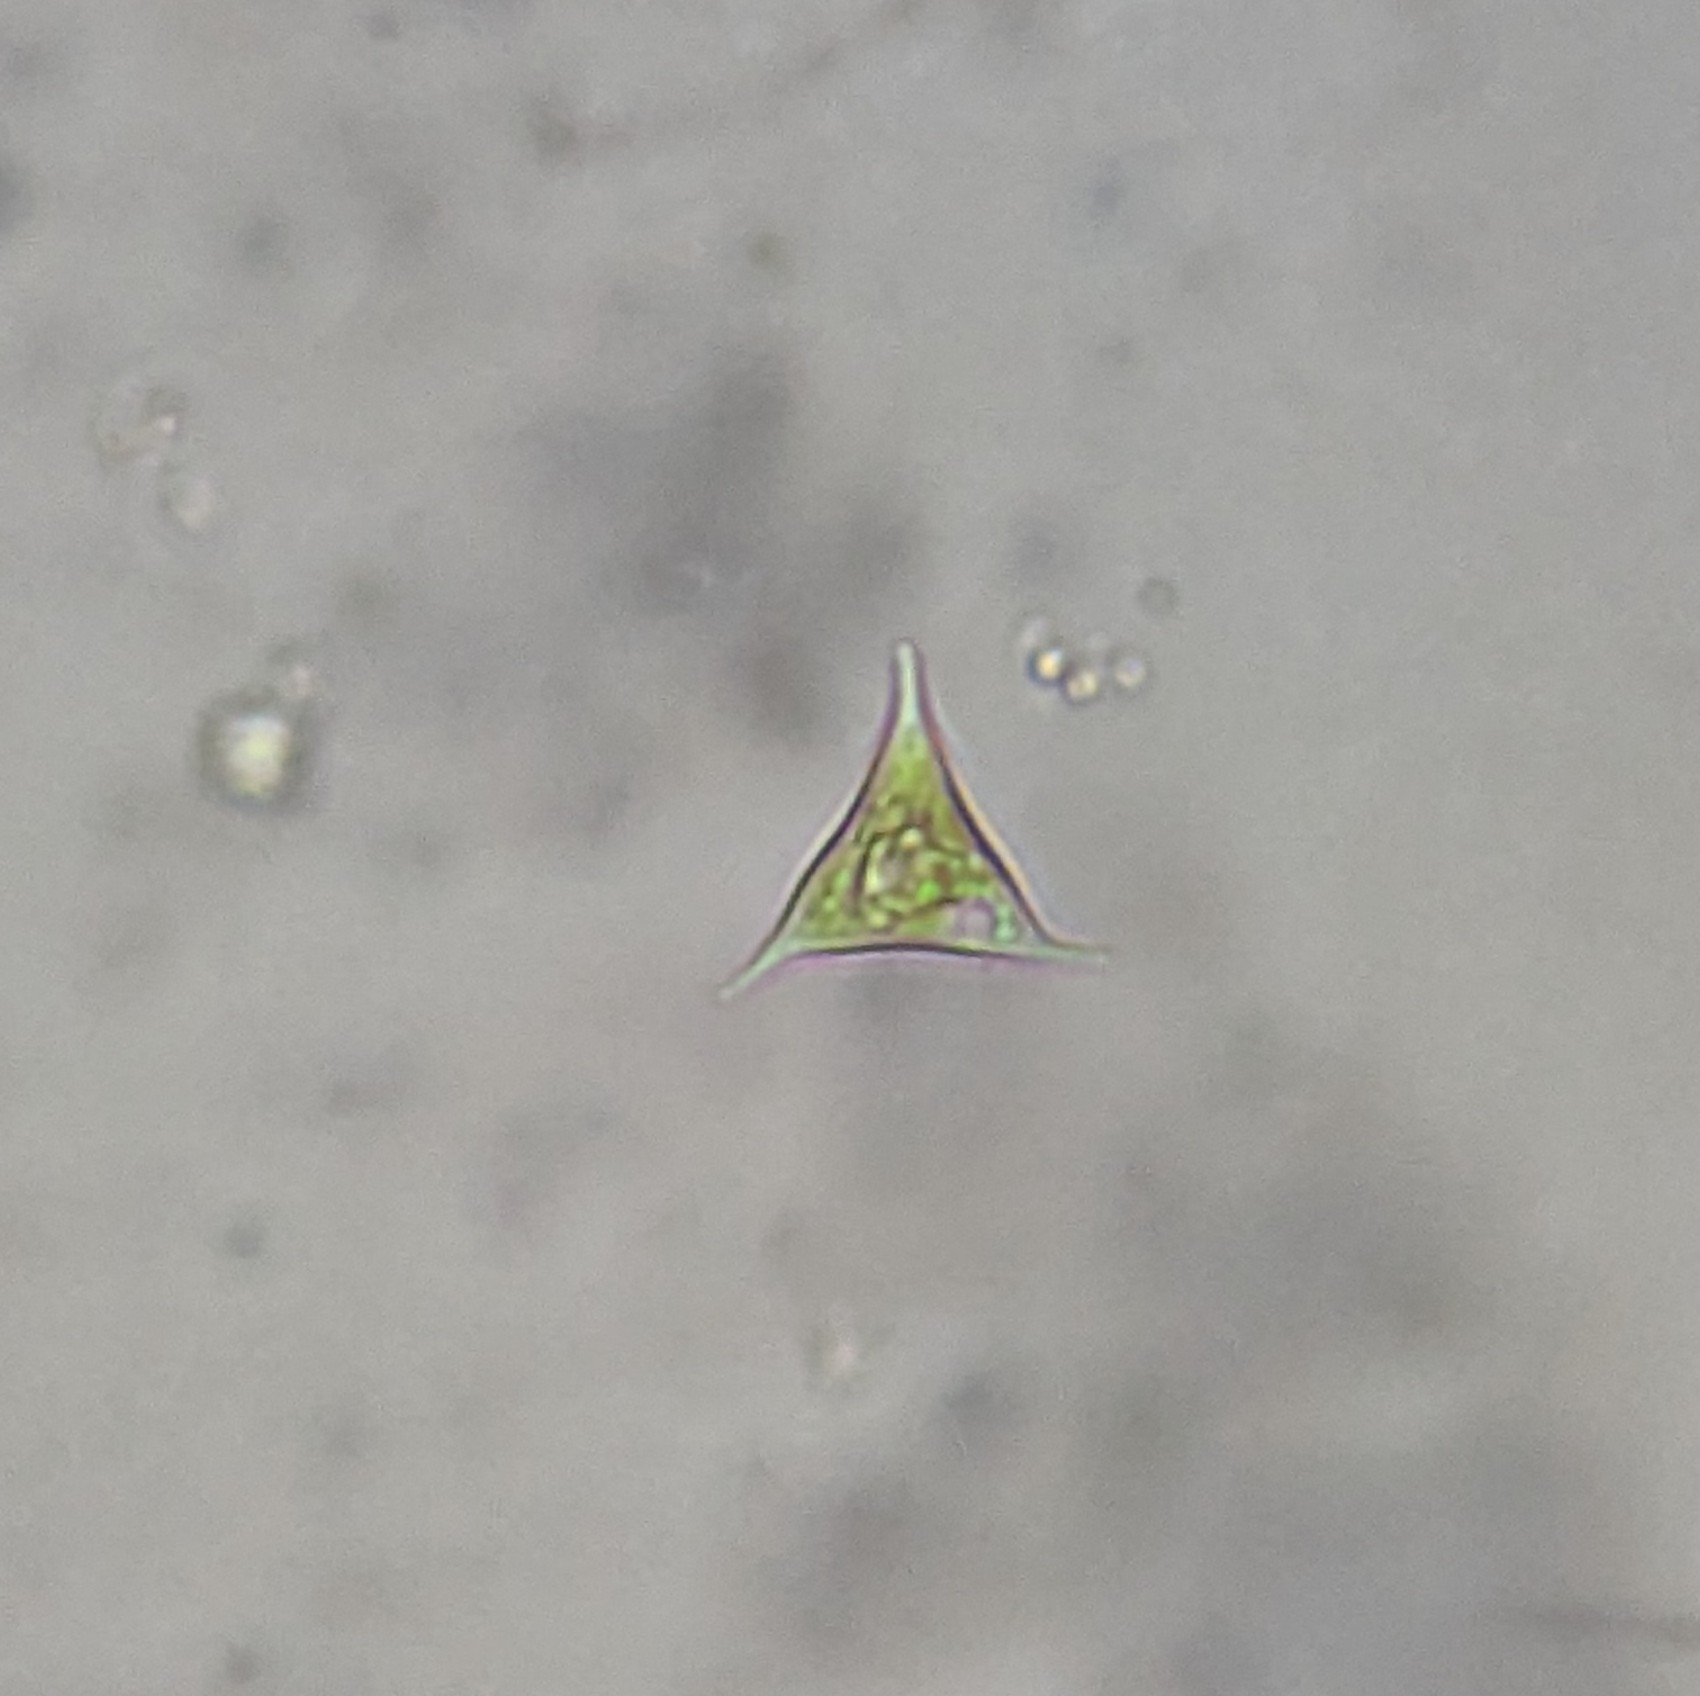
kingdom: Chromista
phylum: Ochrophyta
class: Xanthophyceae
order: Mischococcales
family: Pleurochloridaceae
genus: Pseudogoniochloris
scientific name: Pseudogoniochloris tripus
